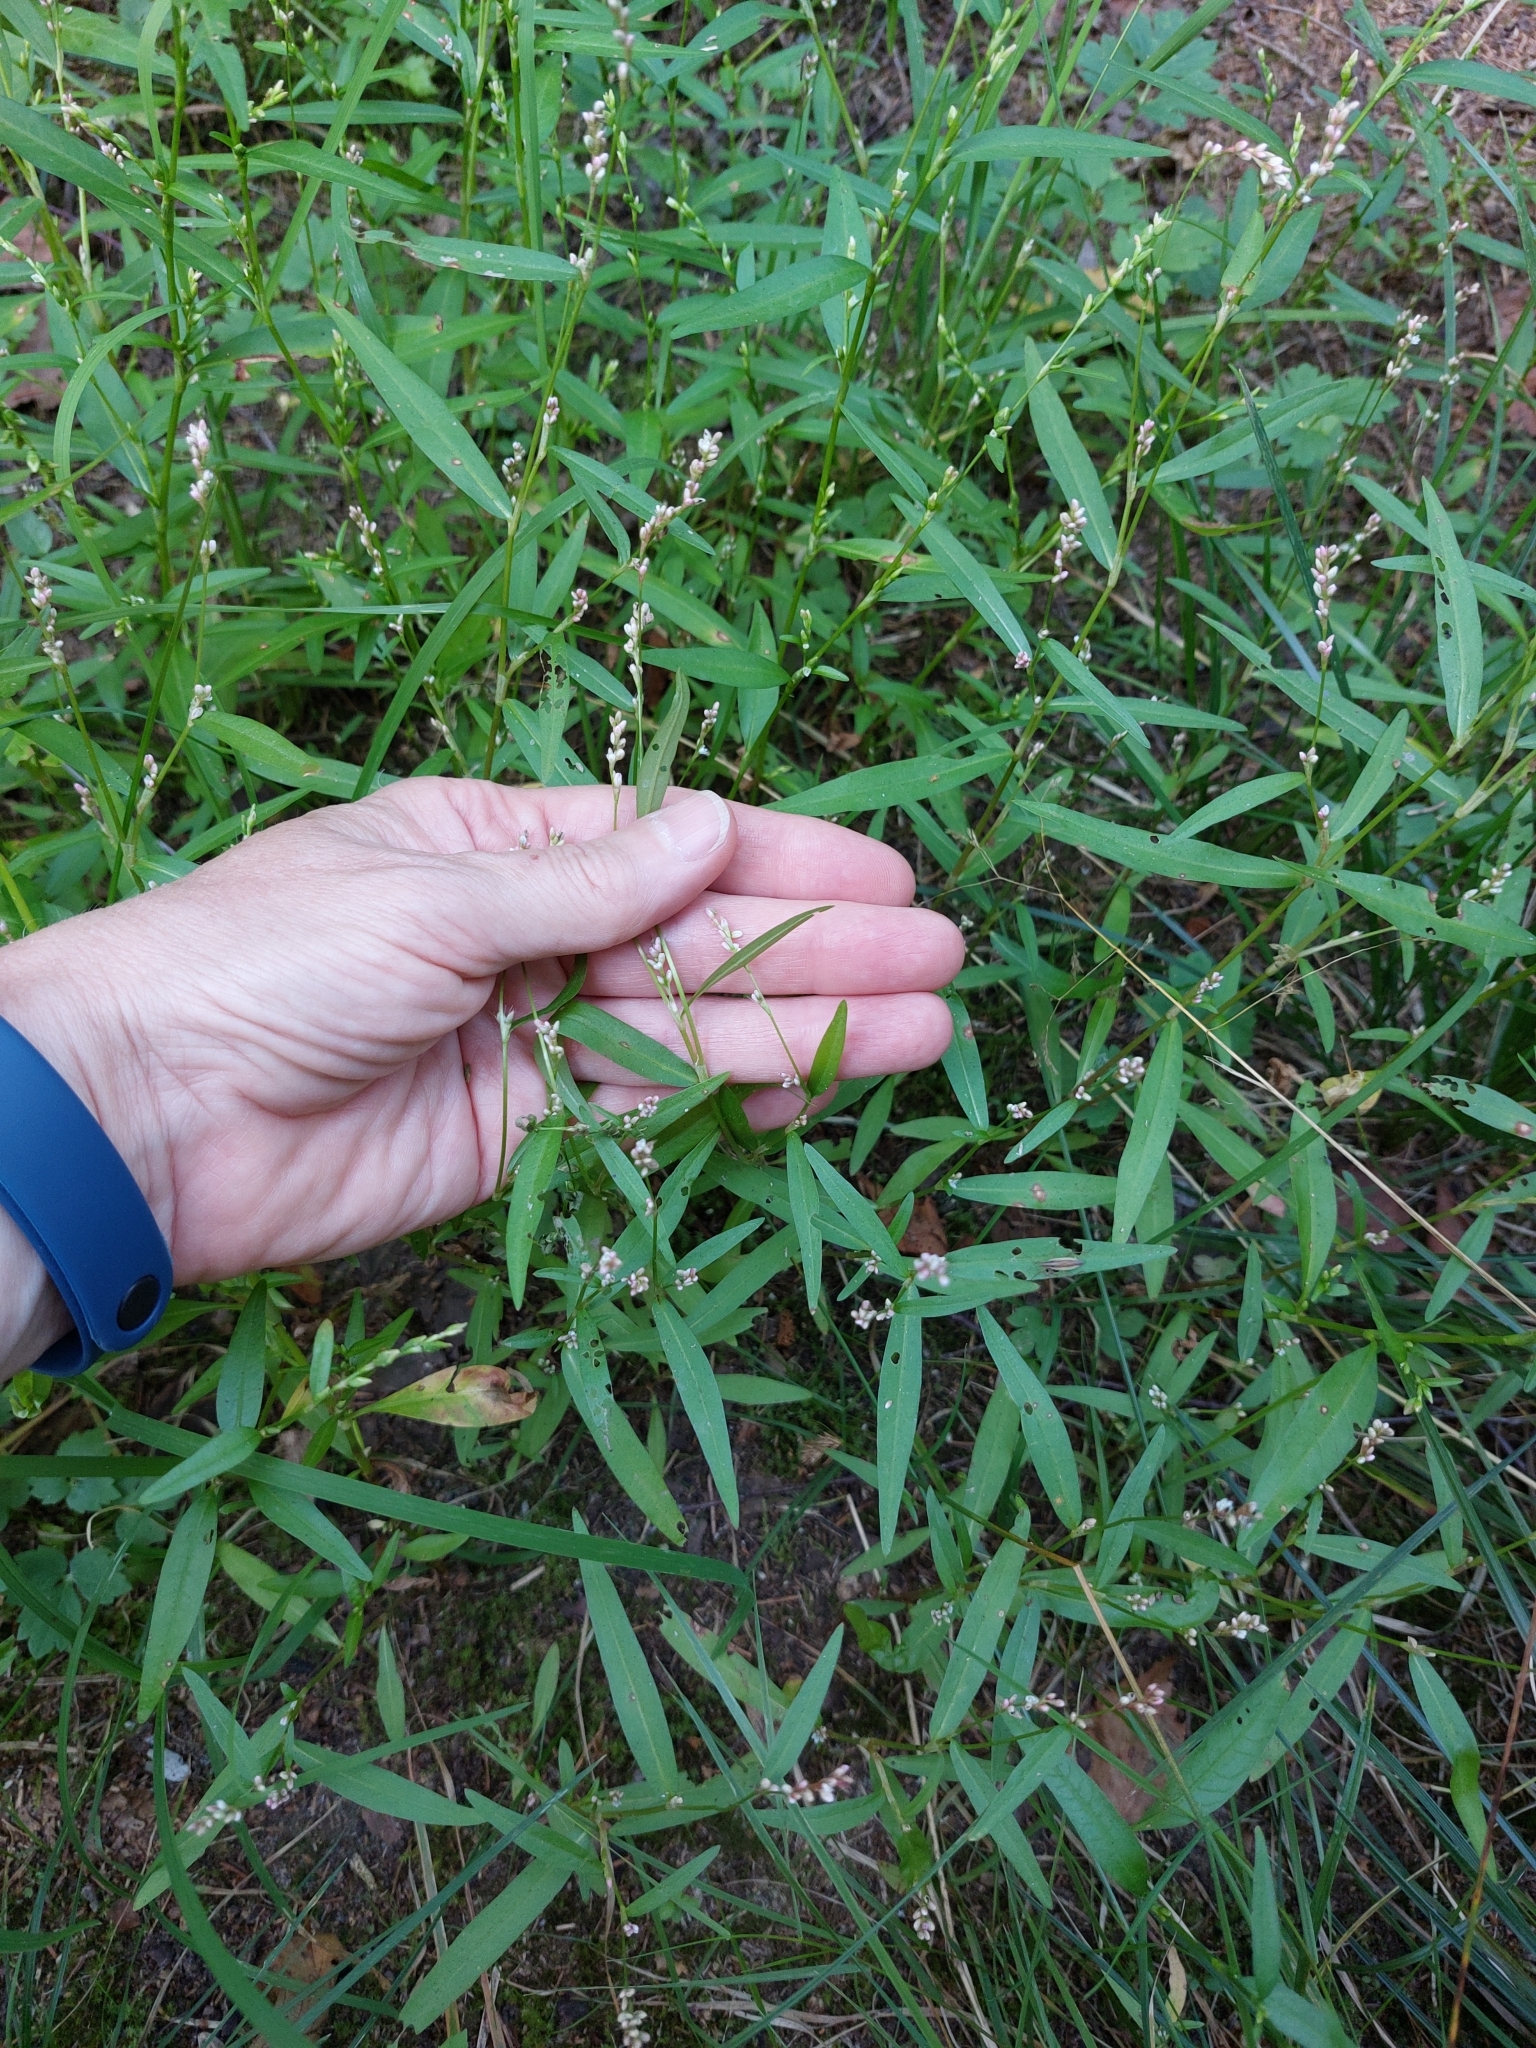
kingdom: Plantae
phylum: Tracheophyta
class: Magnoliopsida
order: Caryophyllales
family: Polygonaceae
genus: Persicaria
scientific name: Persicaria minor
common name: Small water-pepper
